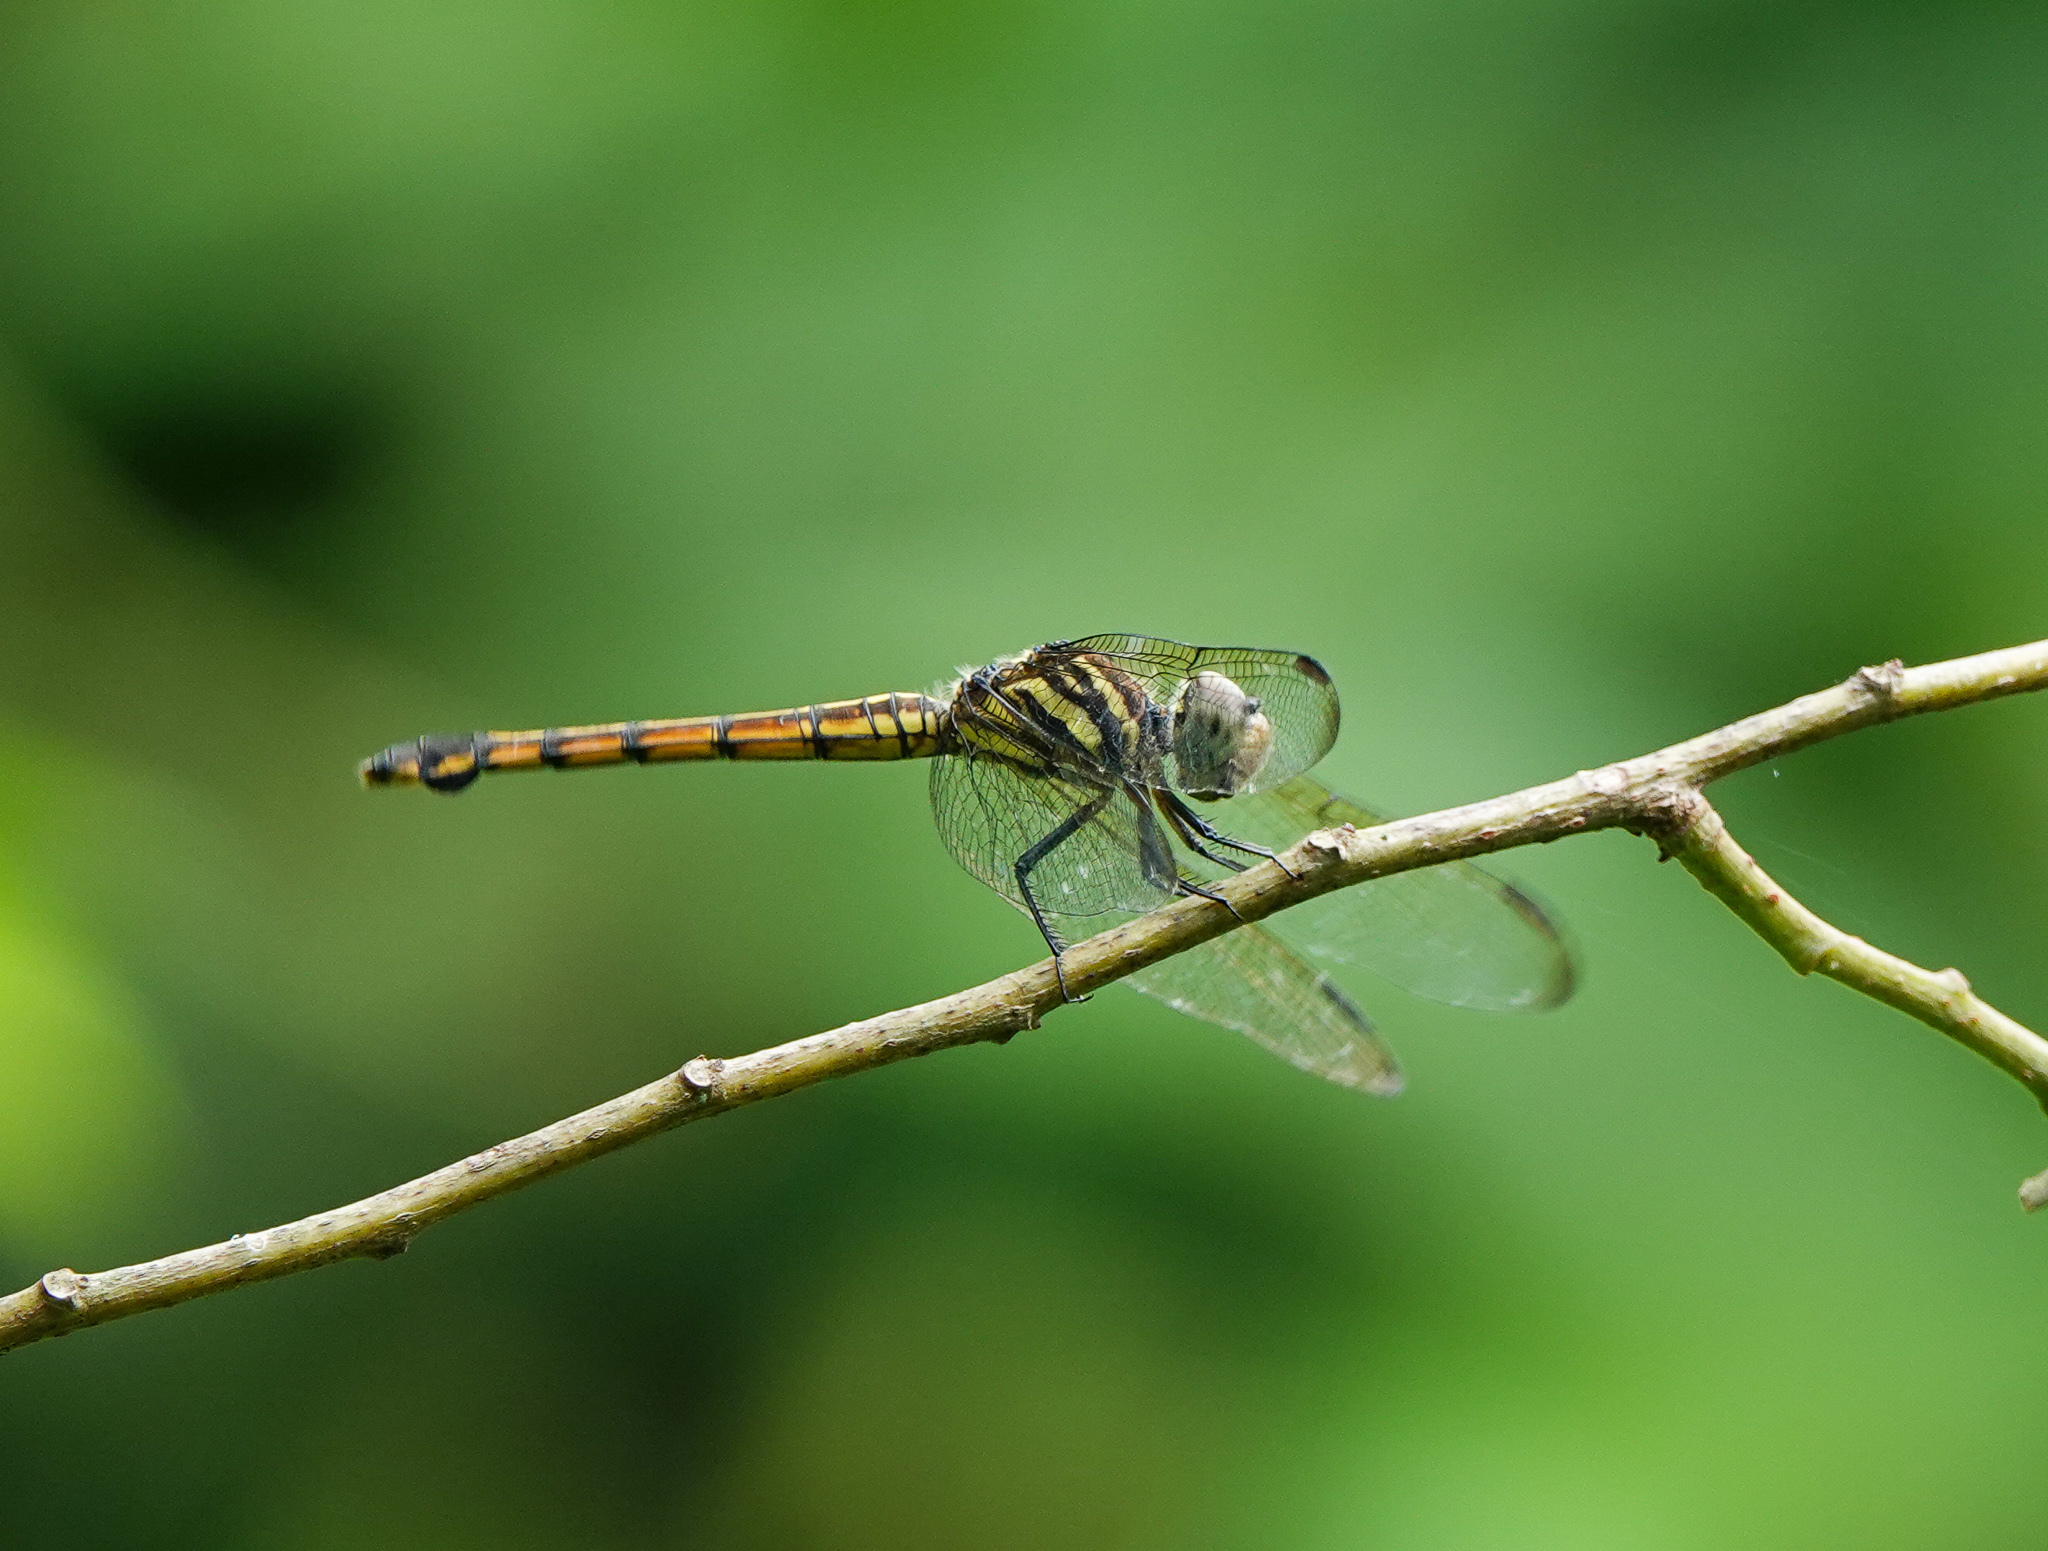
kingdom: Animalia
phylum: Arthropoda
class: Insecta
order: Odonata
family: Libellulidae
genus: Potamarcha
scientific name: Potamarcha congener
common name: Blue chaser
